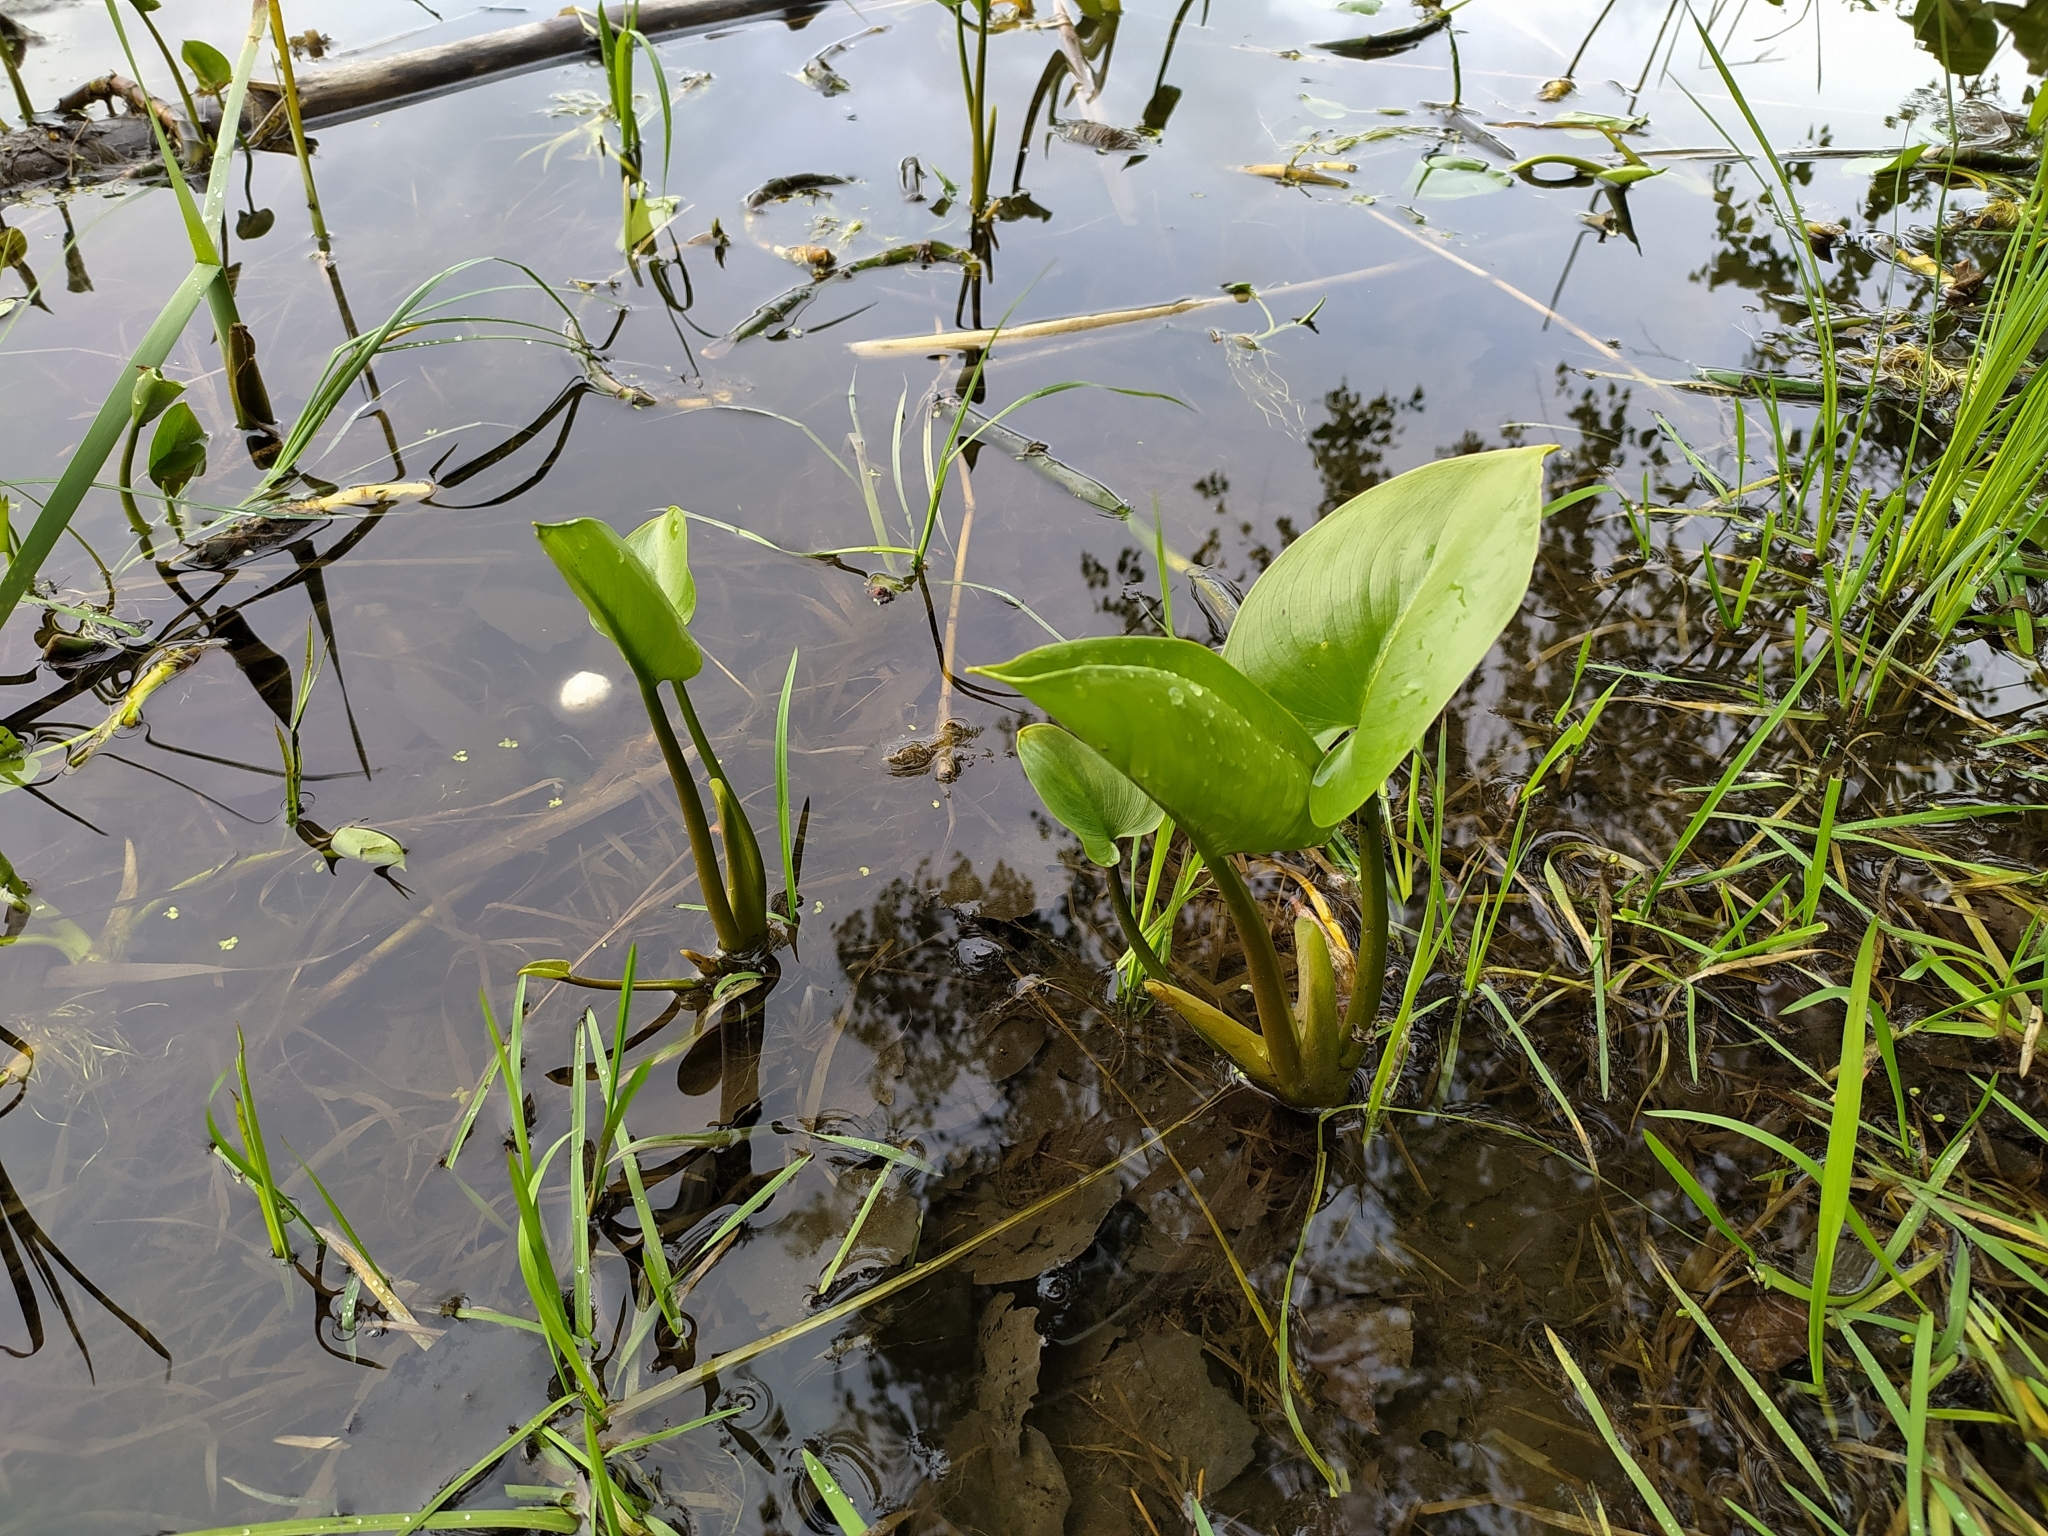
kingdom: Plantae
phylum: Tracheophyta
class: Liliopsida
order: Alismatales
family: Araceae
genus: Calla
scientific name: Calla palustris
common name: Bog arum
